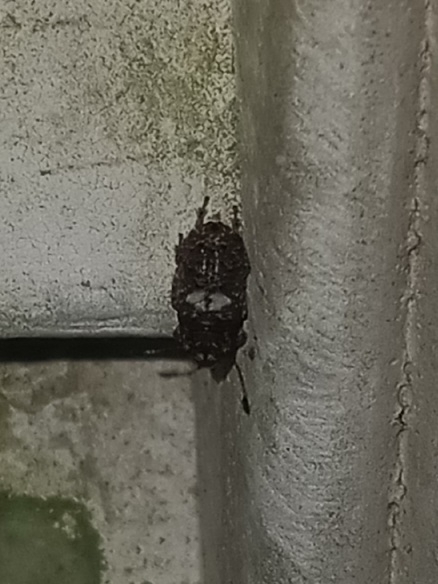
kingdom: Animalia
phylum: Arthropoda
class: Insecta
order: Coleoptera
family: Anthribidae
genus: Toxonotus
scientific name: Toxonotus cornutus
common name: Fungus weevil
